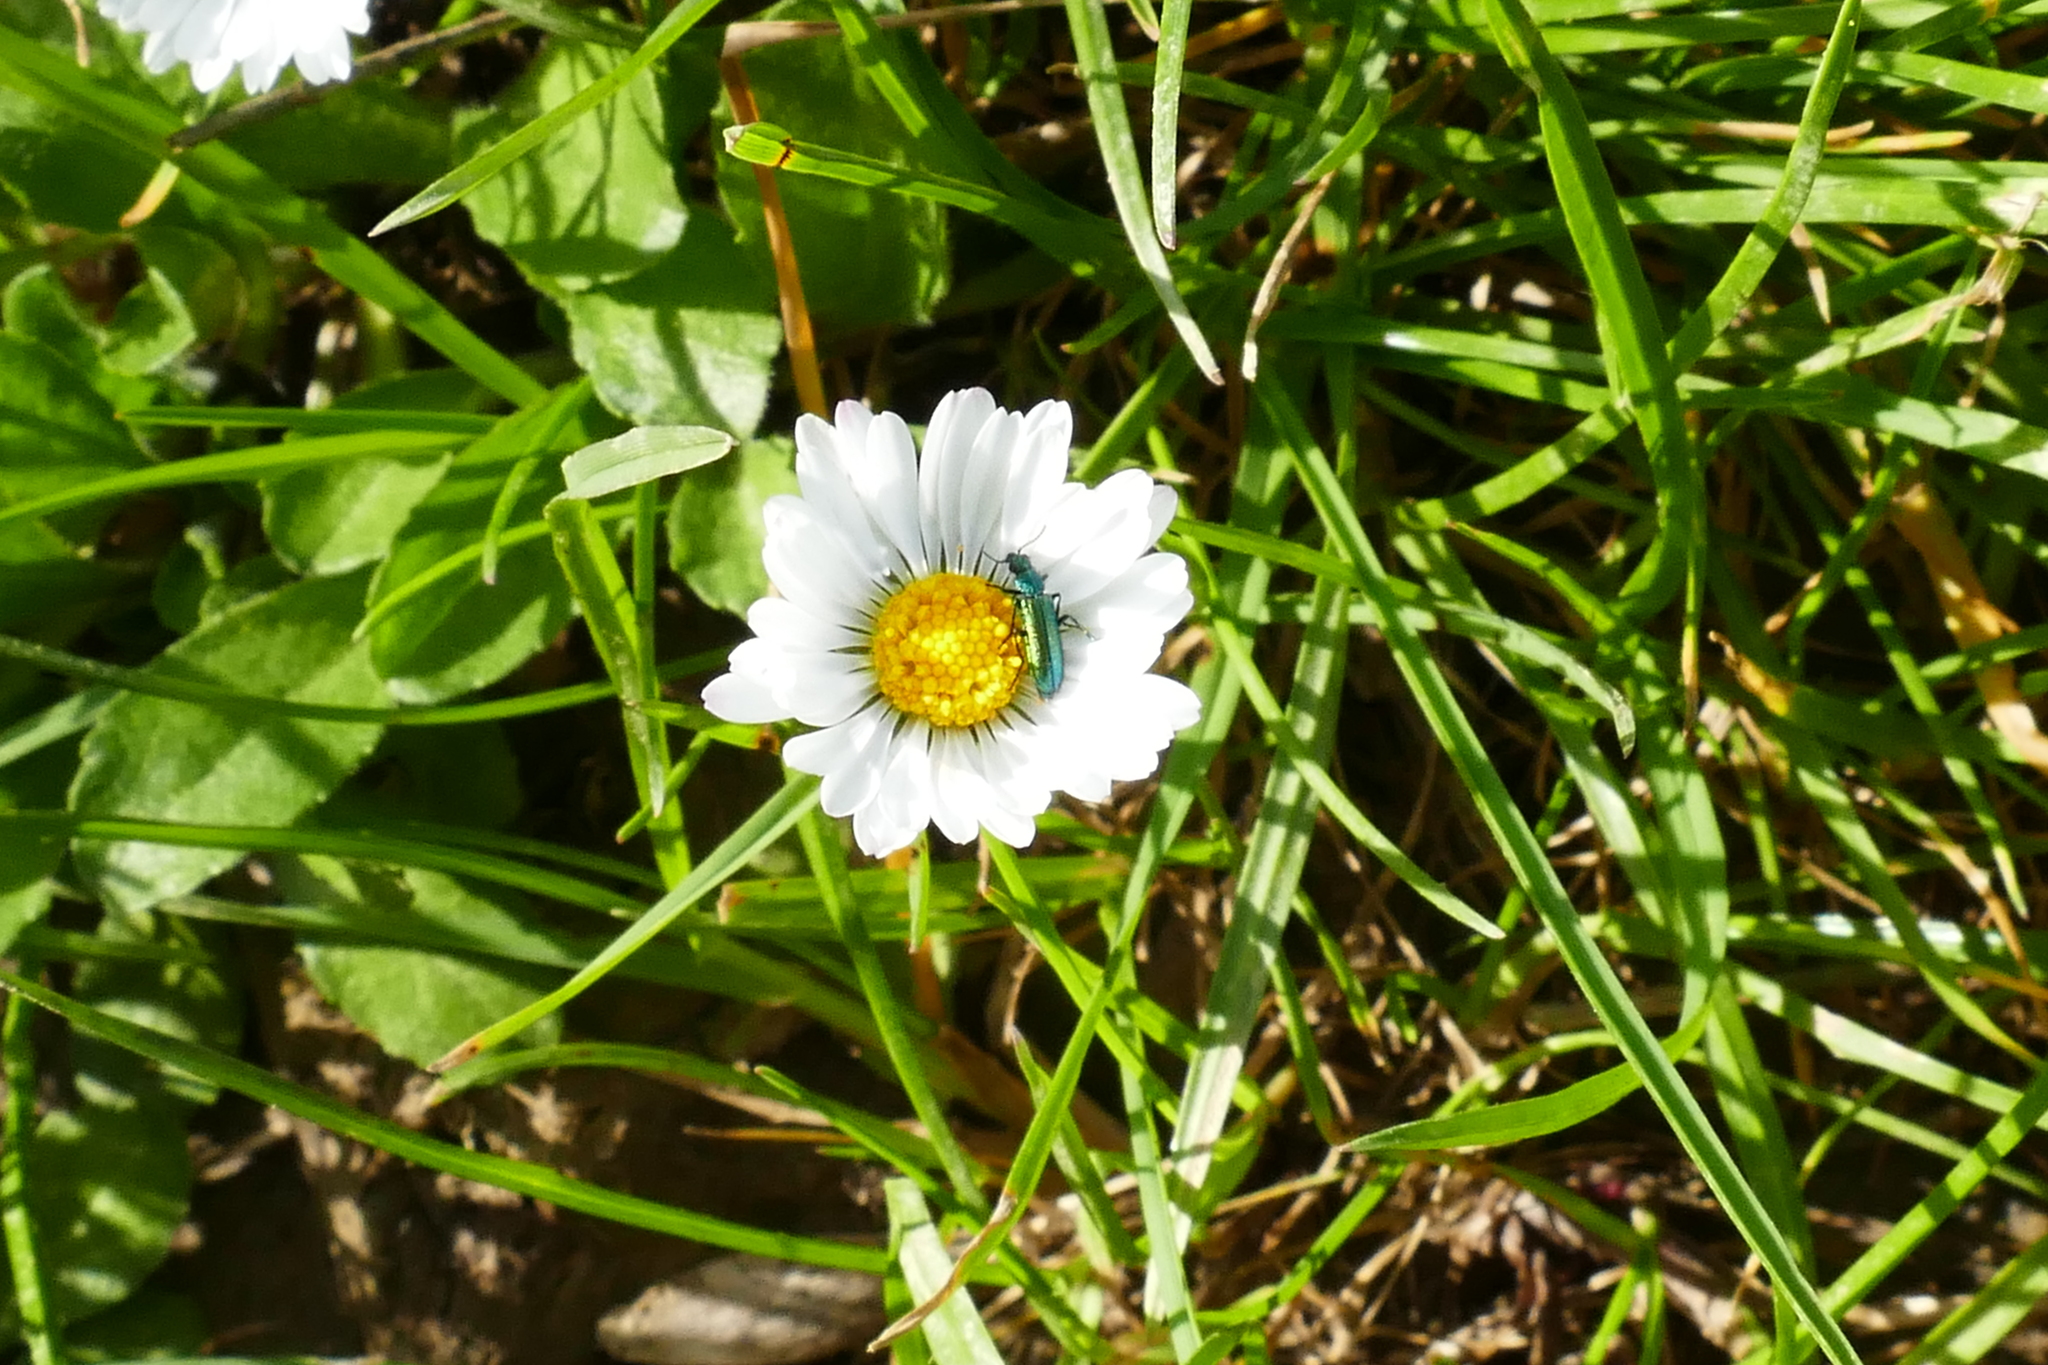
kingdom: Animalia
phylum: Arthropoda
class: Insecta
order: Coleoptera
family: Dasytidae
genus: Psilothrix
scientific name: Psilothrix viridicoerulea
